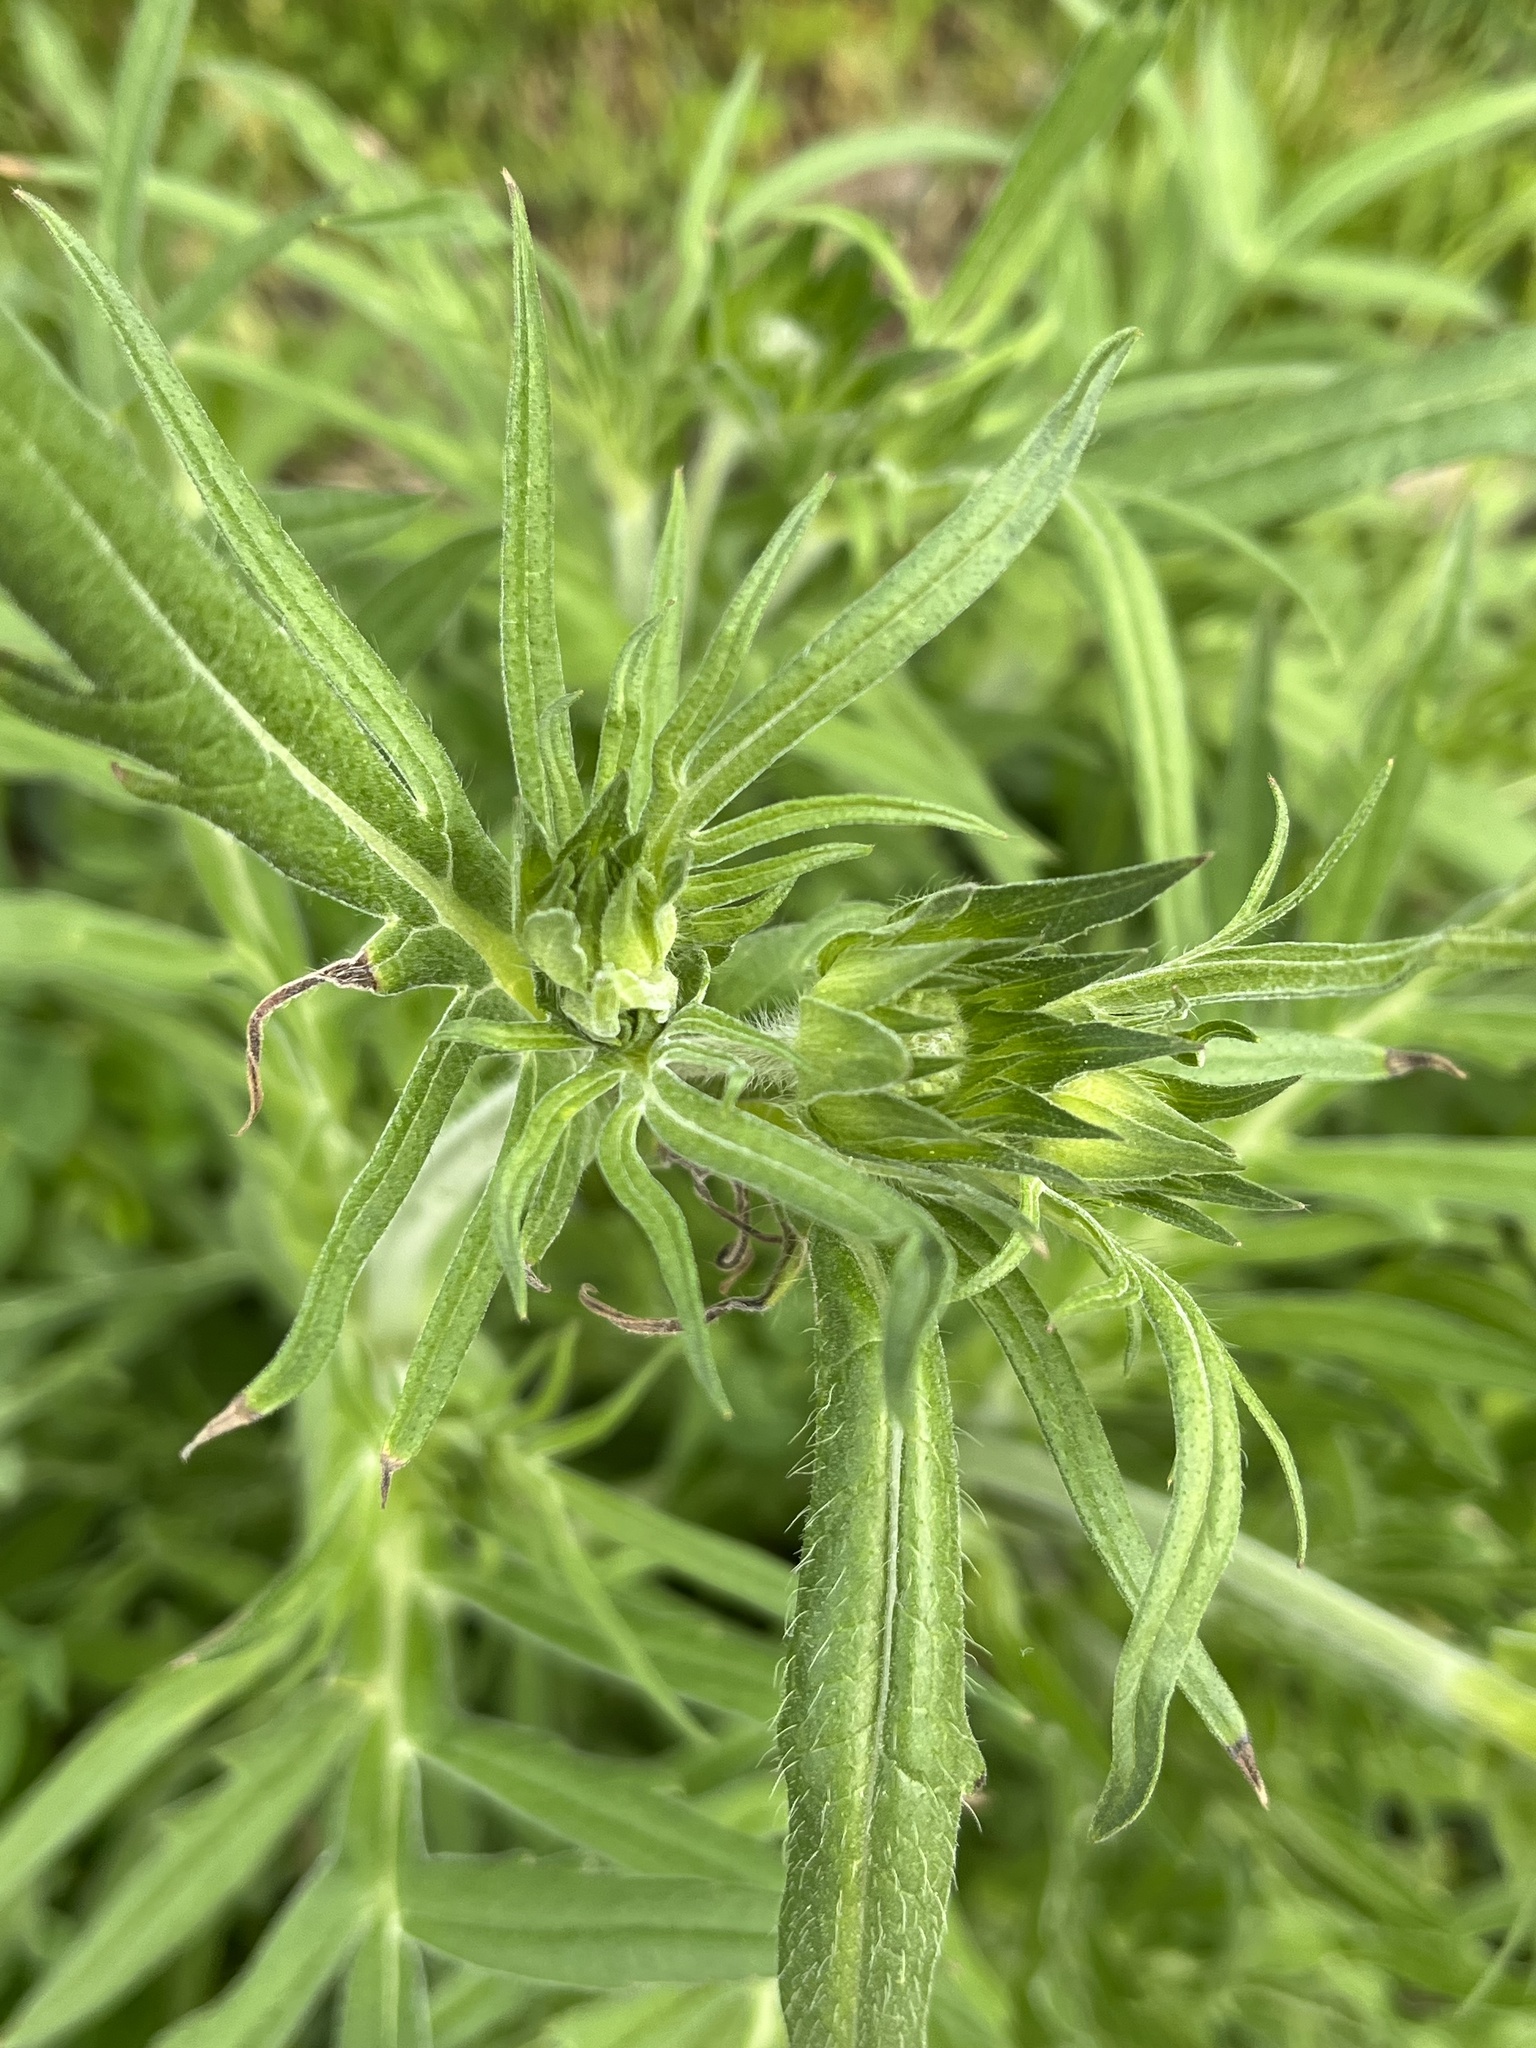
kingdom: Plantae
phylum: Tracheophyta
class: Magnoliopsida
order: Dipsacales
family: Caprifoliaceae
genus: Knautia
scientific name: Knautia arvensis
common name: Field scabiosa
